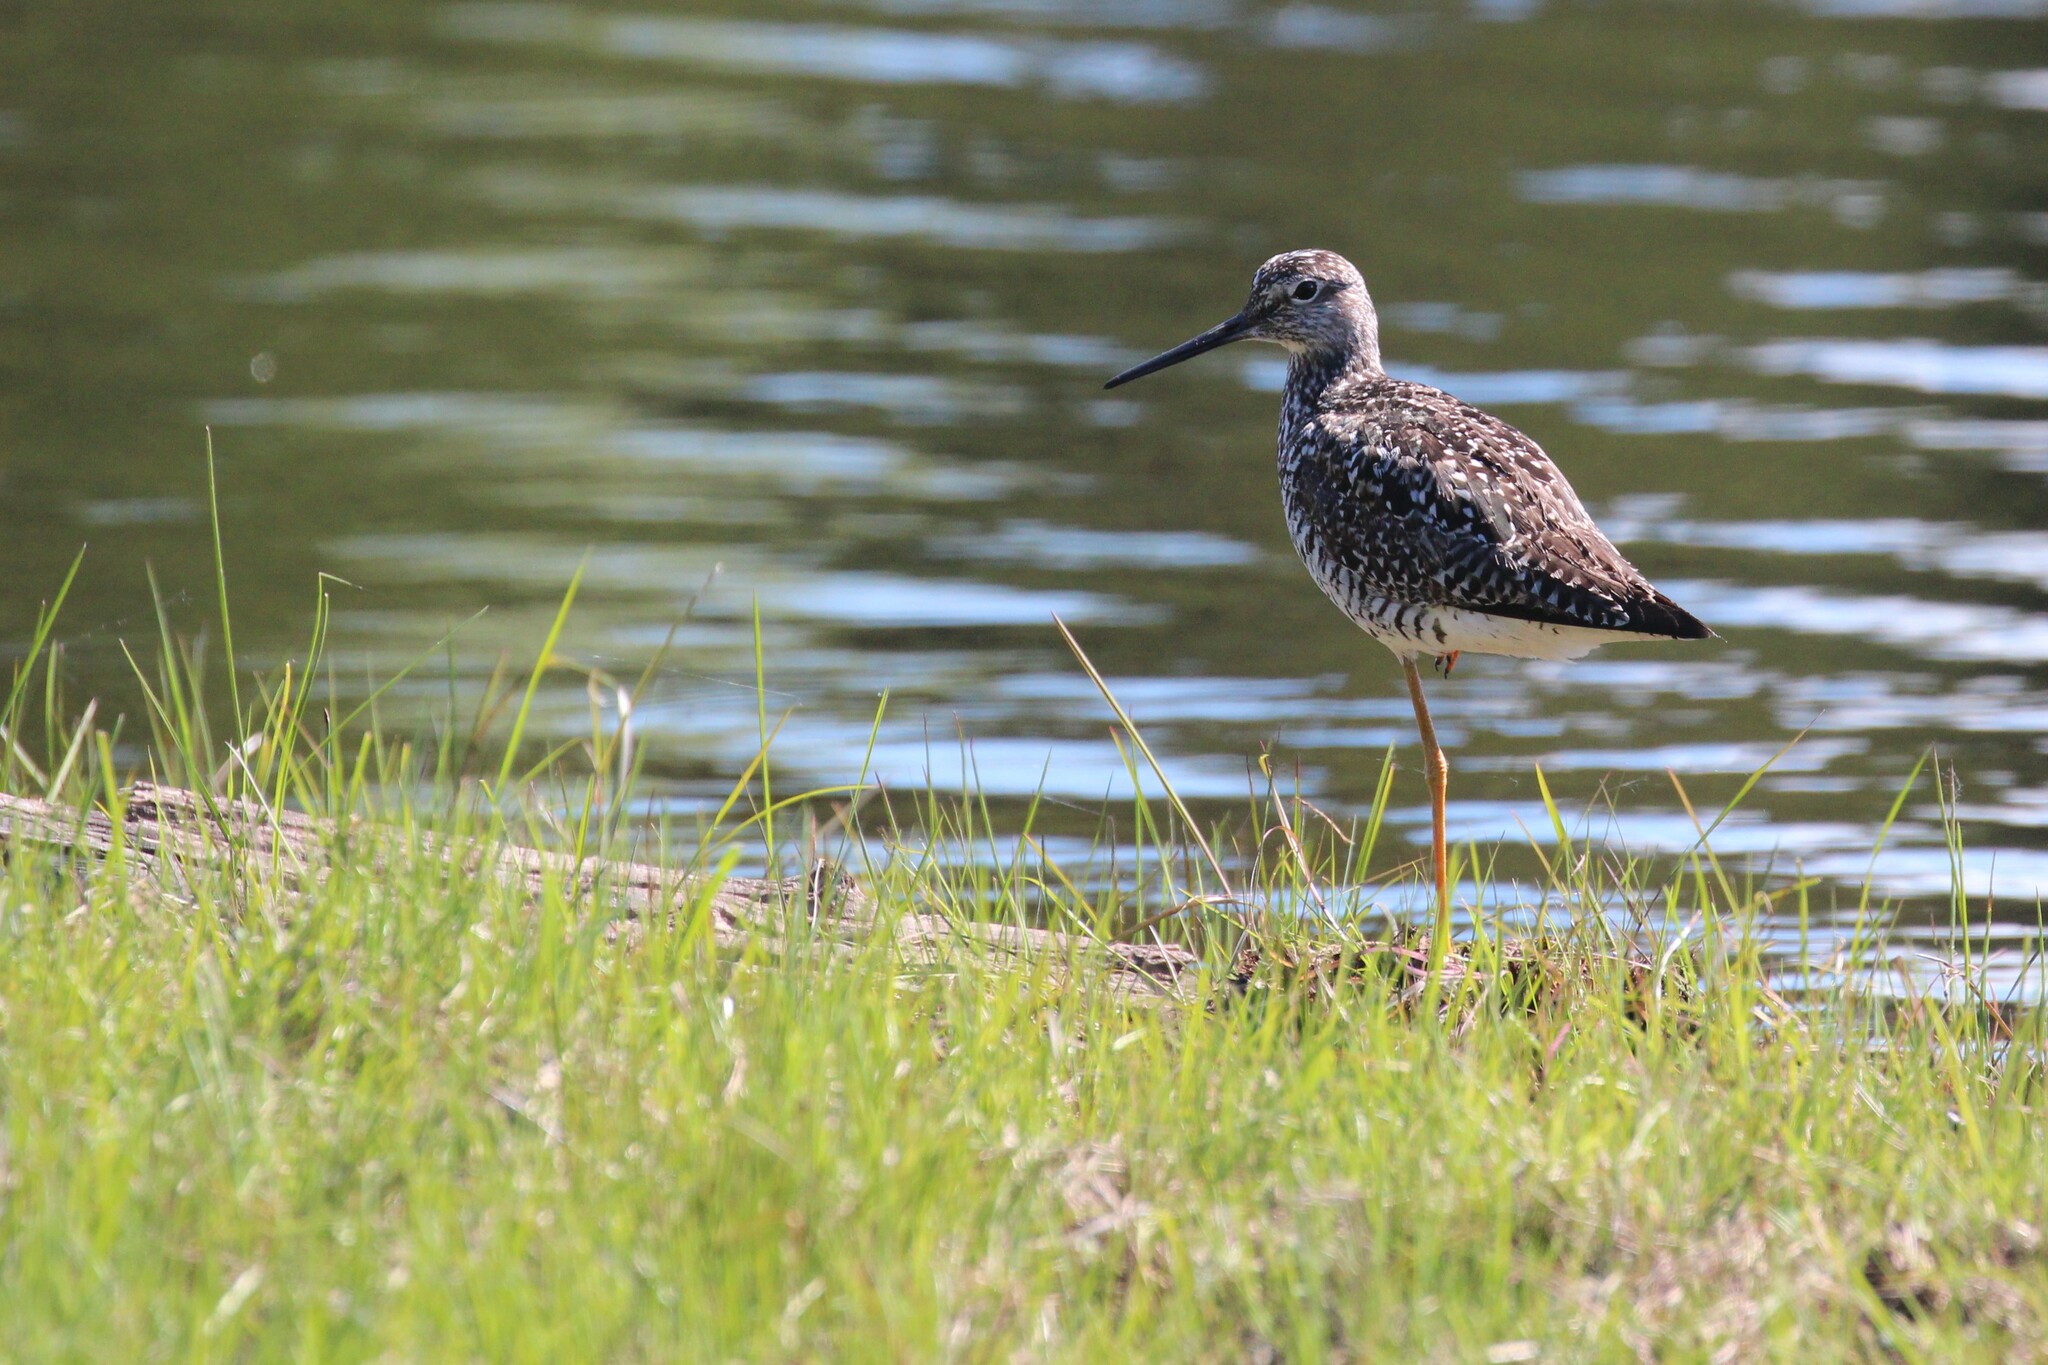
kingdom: Animalia
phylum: Chordata
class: Aves
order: Charadriiformes
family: Scolopacidae
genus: Tringa
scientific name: Tringa melanoleuca
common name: Greater yellowlegs
